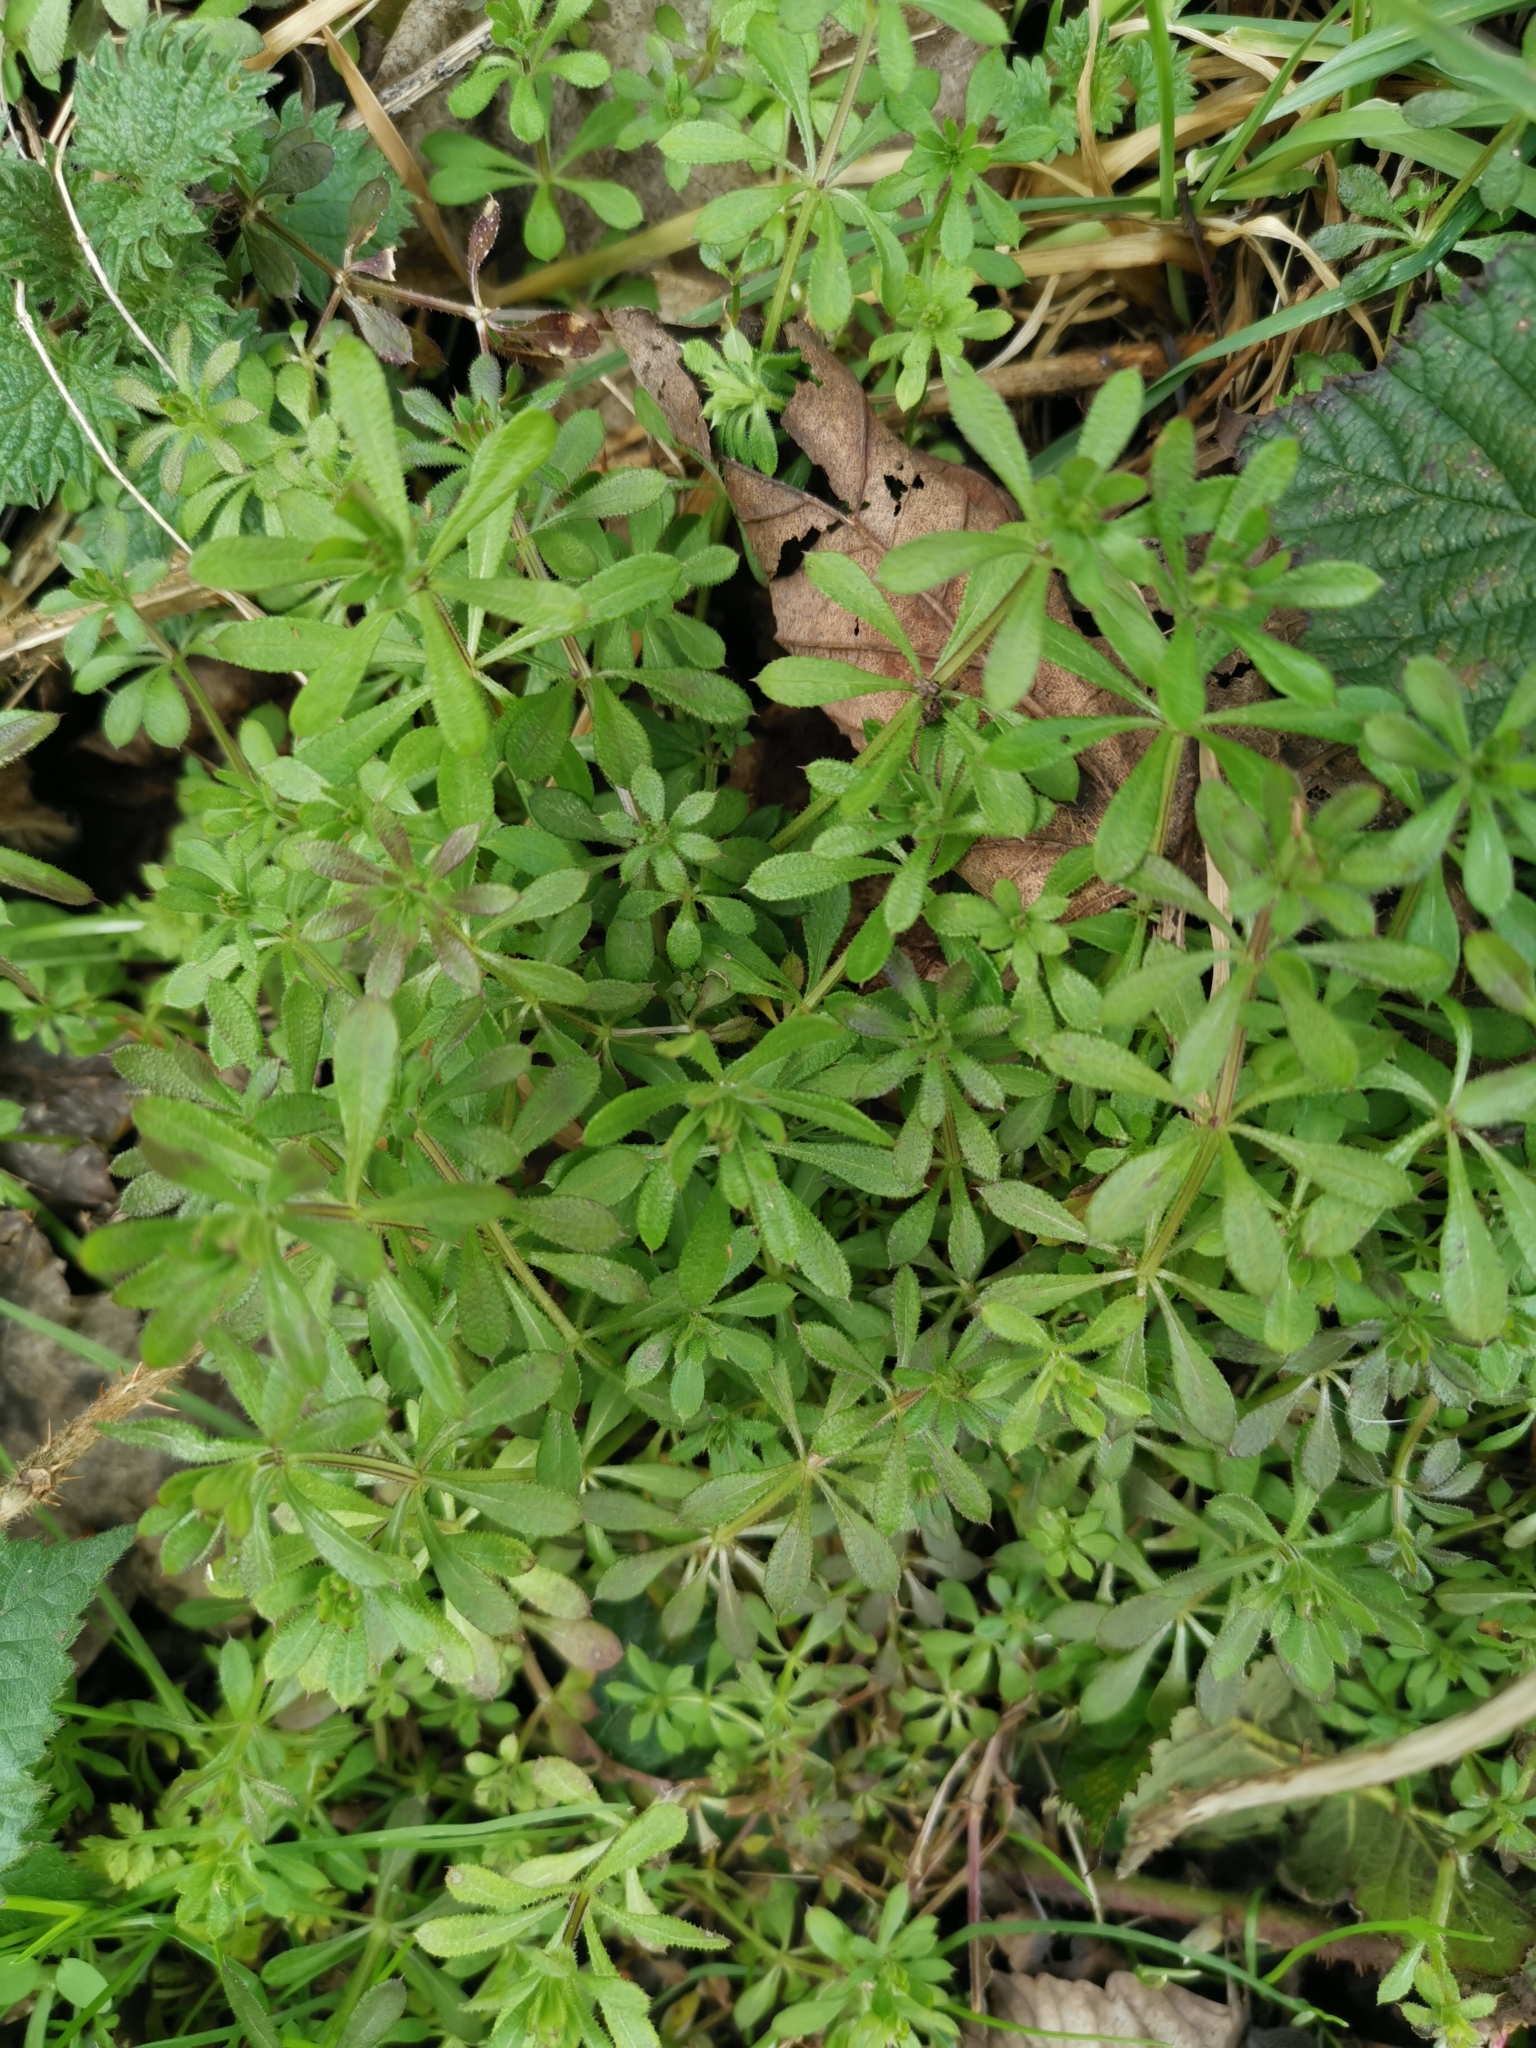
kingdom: Plantae
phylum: Tracheophyta
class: Magnoliopsida
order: Gentianales
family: Rubiaceae
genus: Galium
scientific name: Galium aparine
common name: Cleavers
